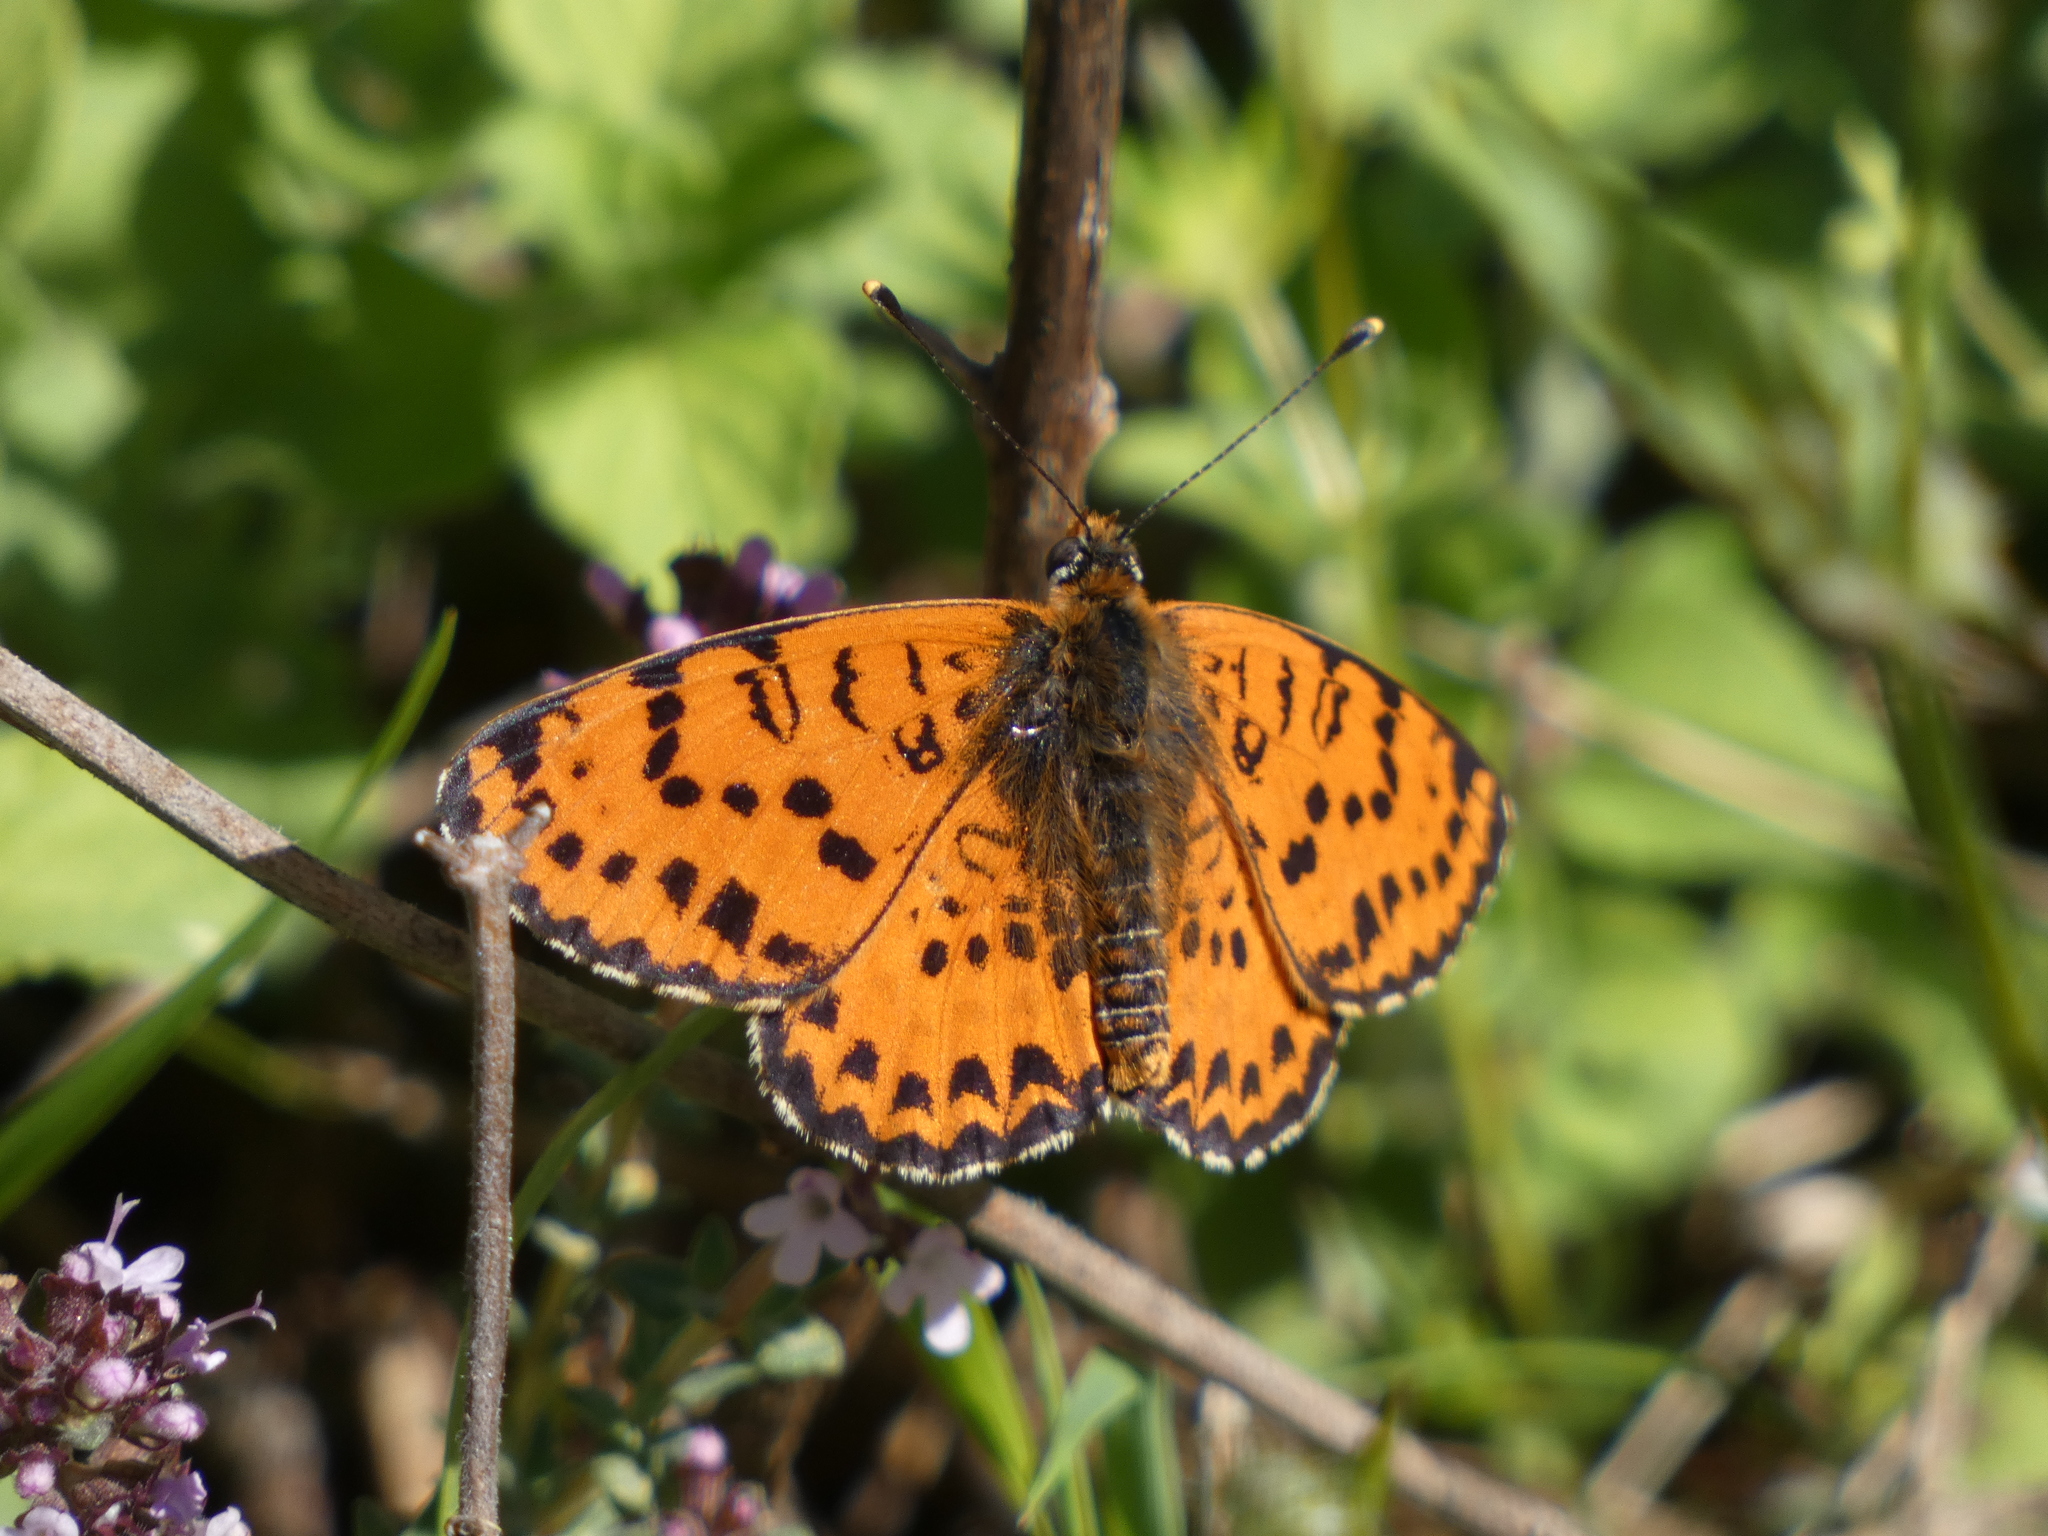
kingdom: Animalia
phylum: Arthropoda
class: Insecta
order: Lepidoptera
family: Nymphalidae
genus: Melitaea
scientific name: Melitaea didyma
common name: Spotted fritillary
